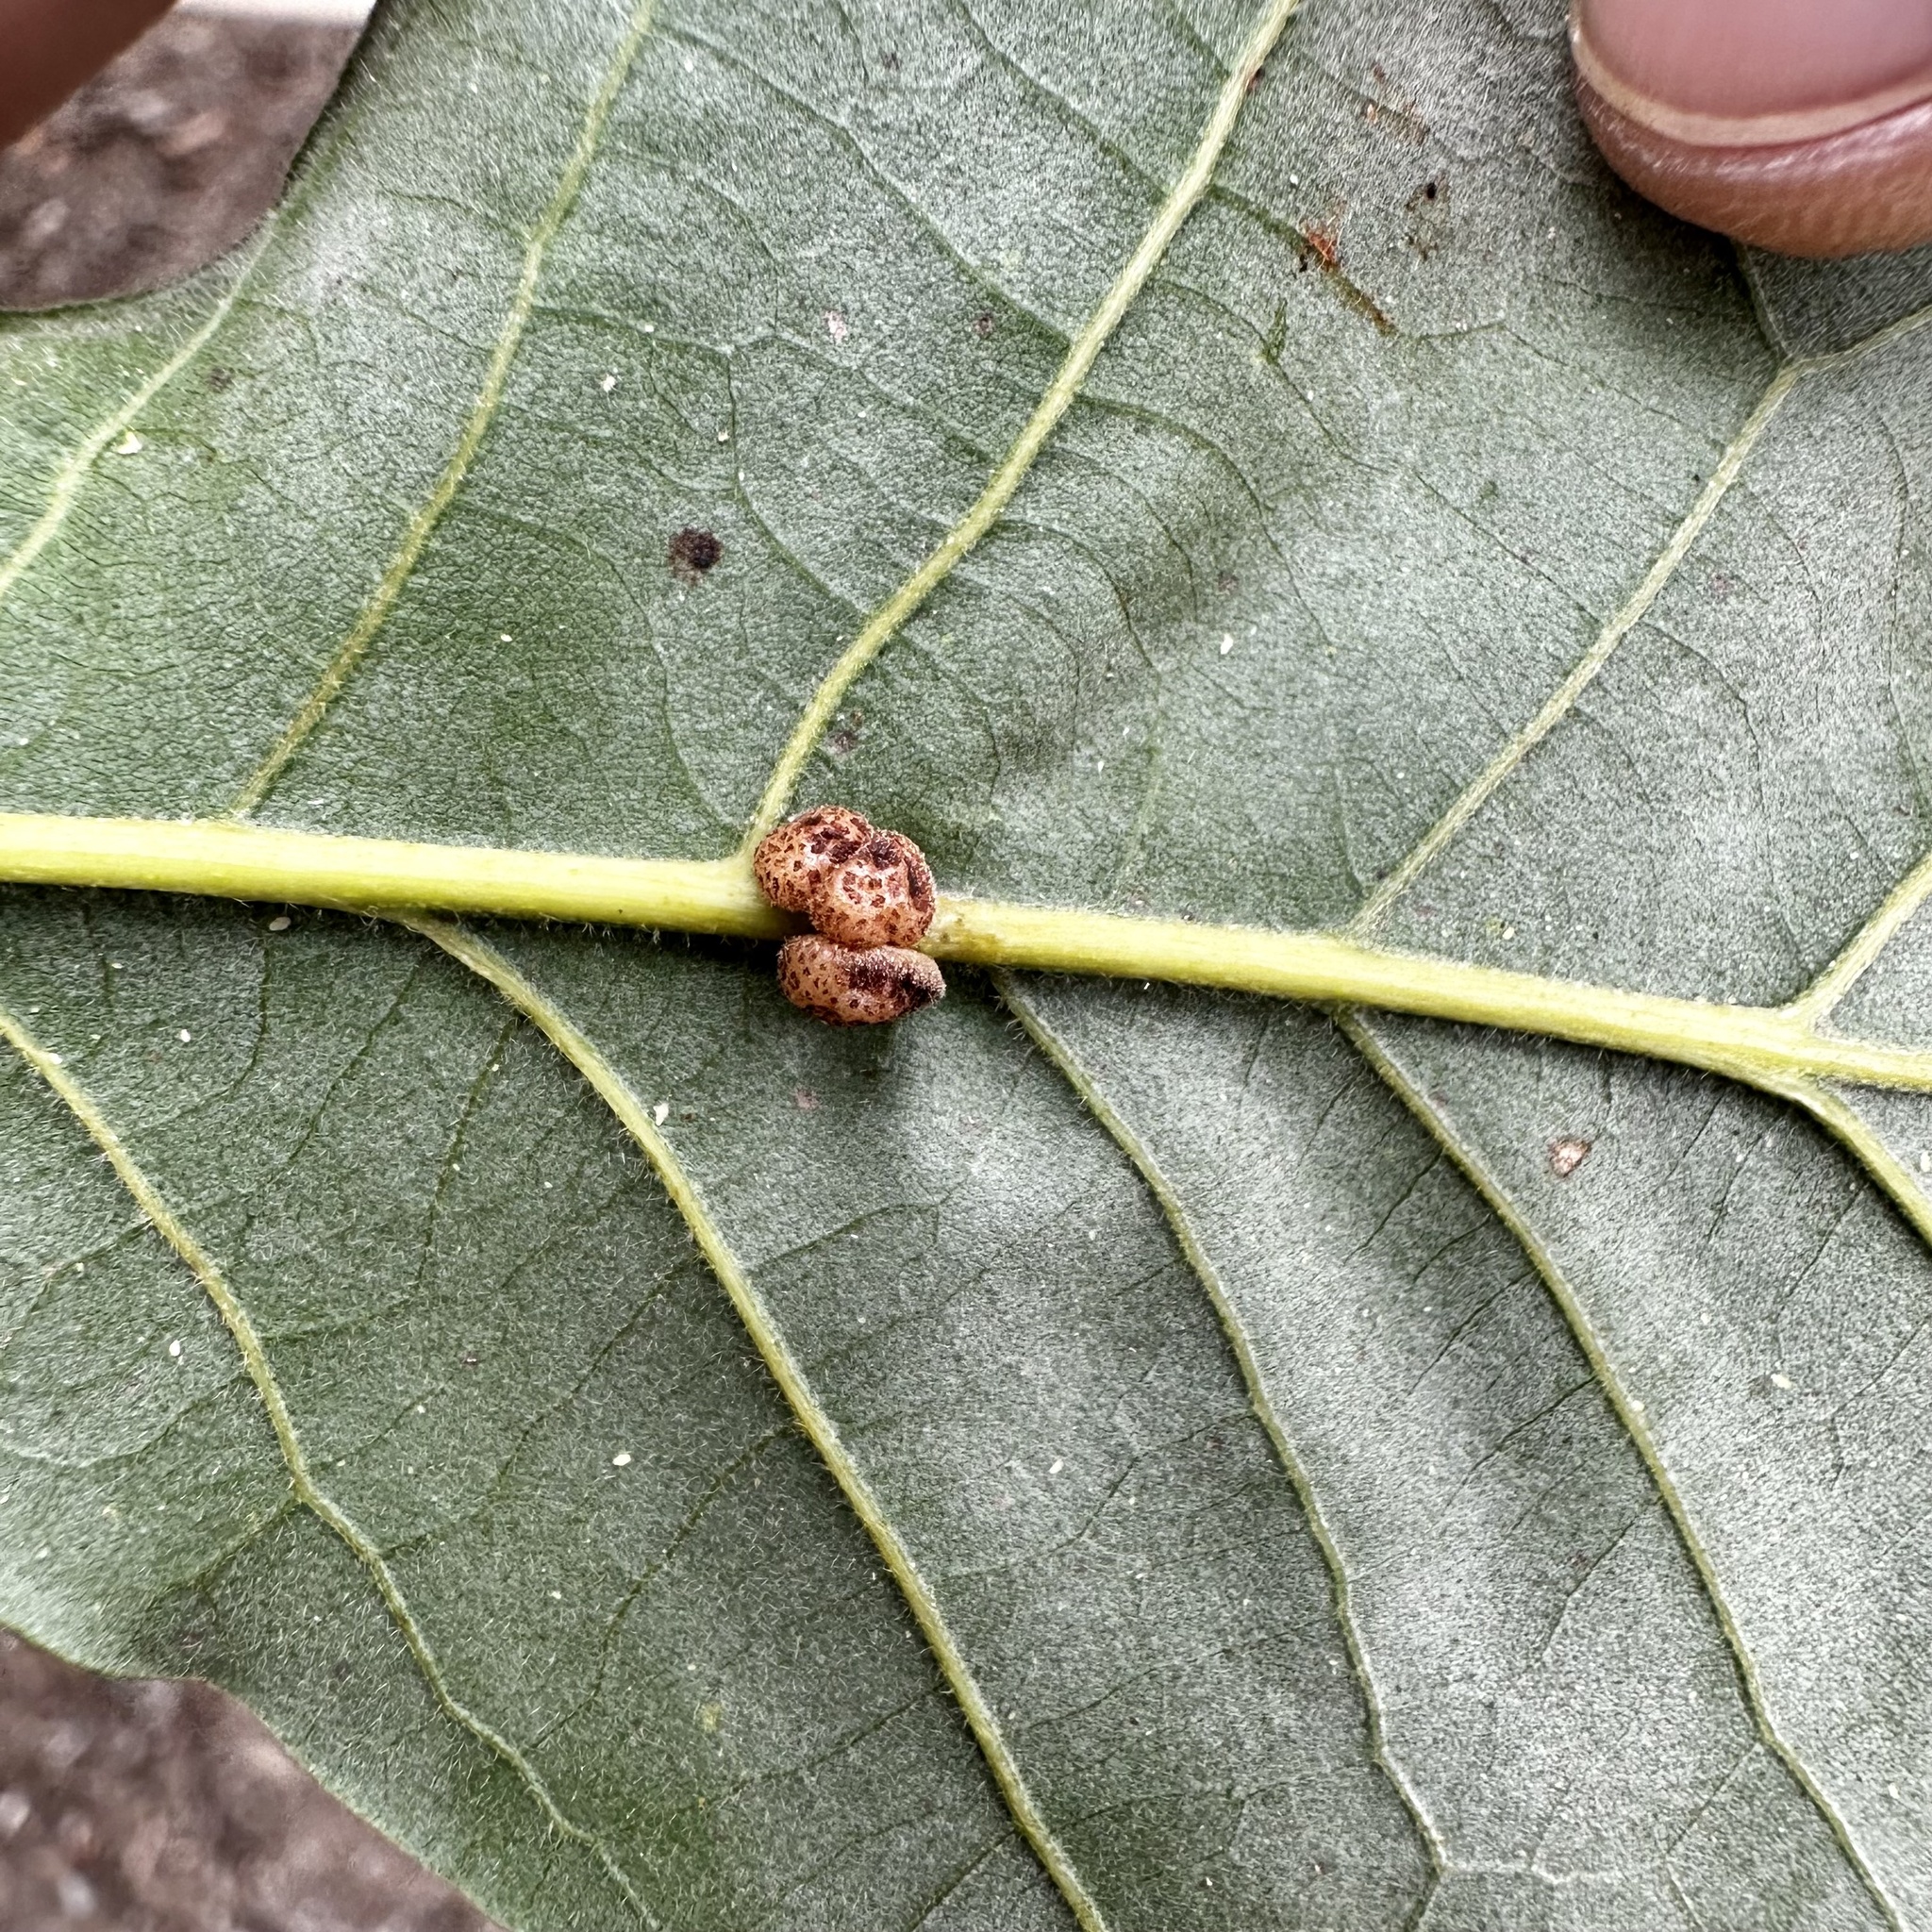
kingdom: Animalia
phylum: Arthropoda
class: Insecta
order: Hymenoptera
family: Cynipidae
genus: Andricus
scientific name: Andricus
